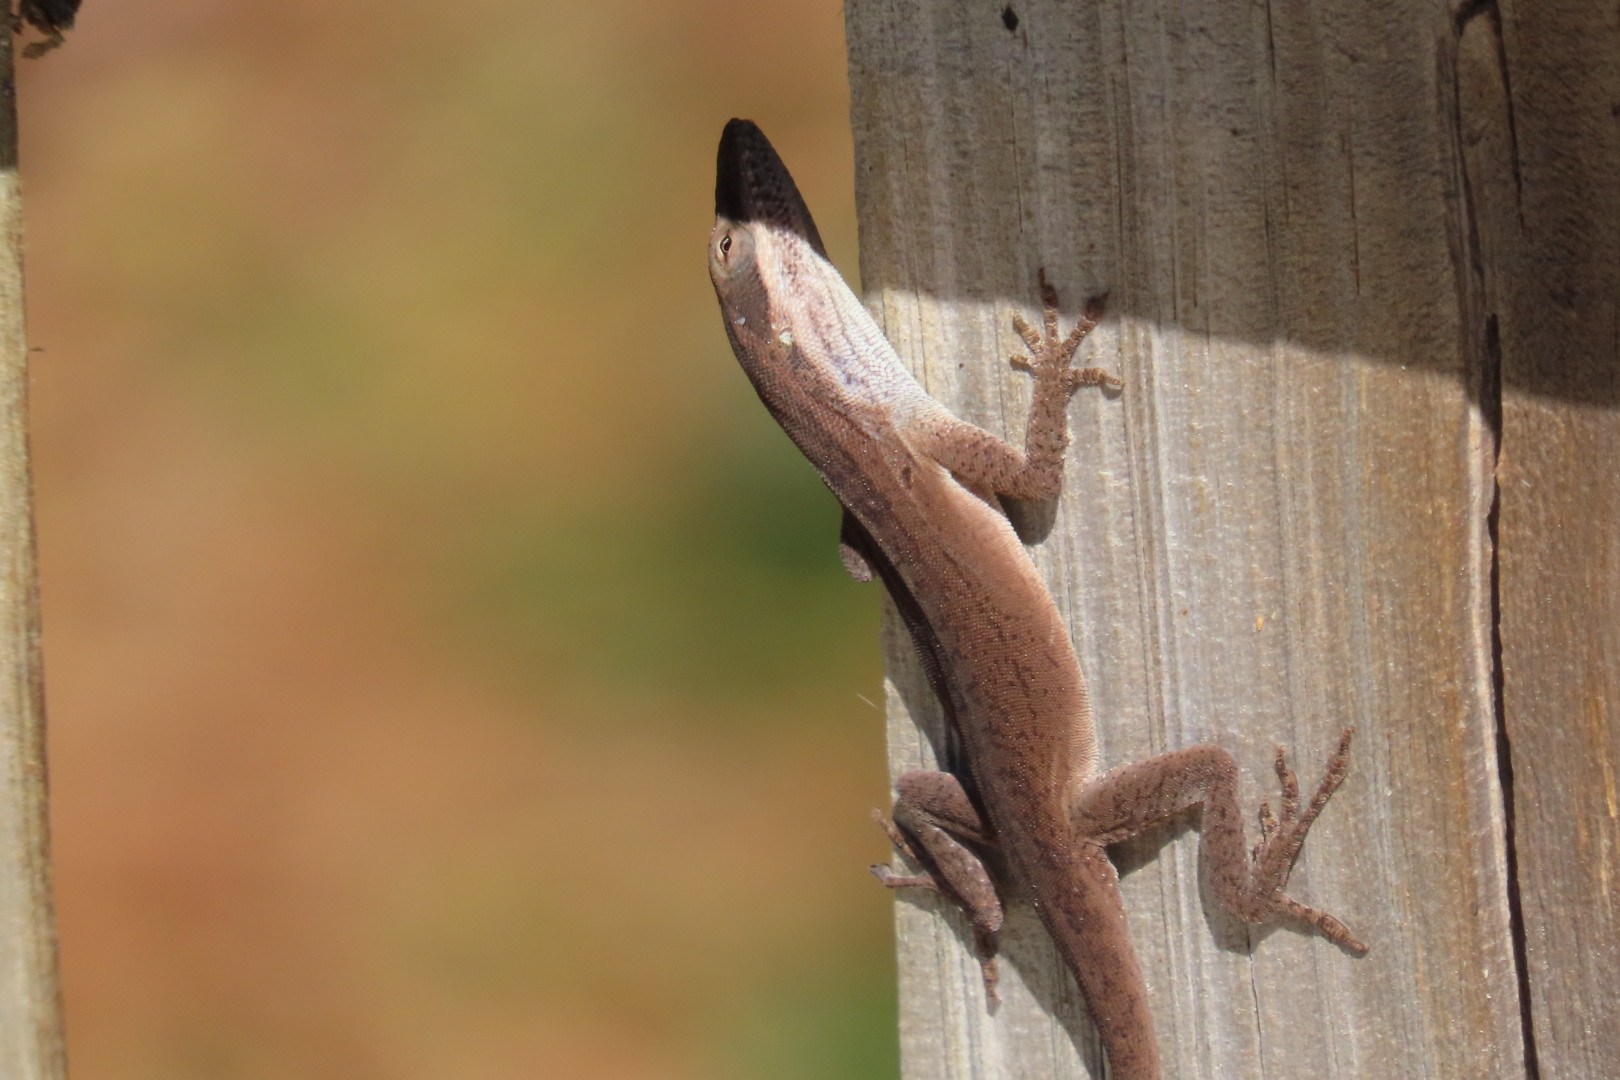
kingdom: Animalia
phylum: Chordata
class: Squamata
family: Dactyloidae
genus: Anolis
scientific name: Anolis carolinensis
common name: Green anole
